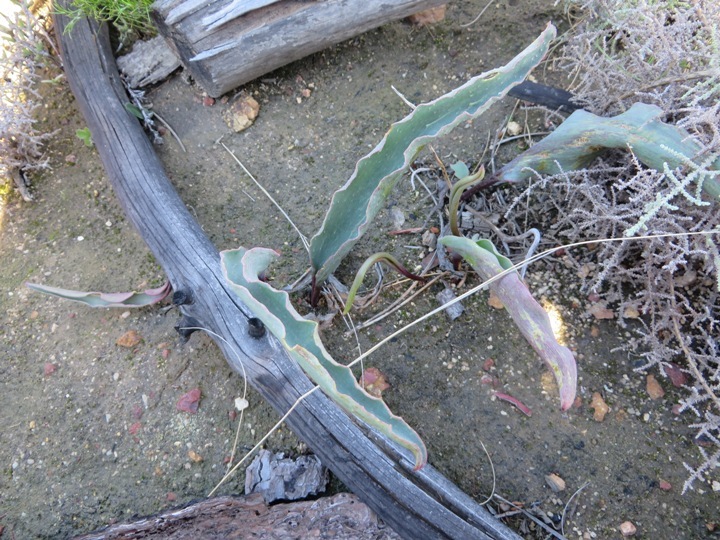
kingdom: Plantae
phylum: Tracheophyta
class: Liliopsida
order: Asparagales
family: Asparagaceae
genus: Eriospermum
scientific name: Eriospermum lanceifolium
